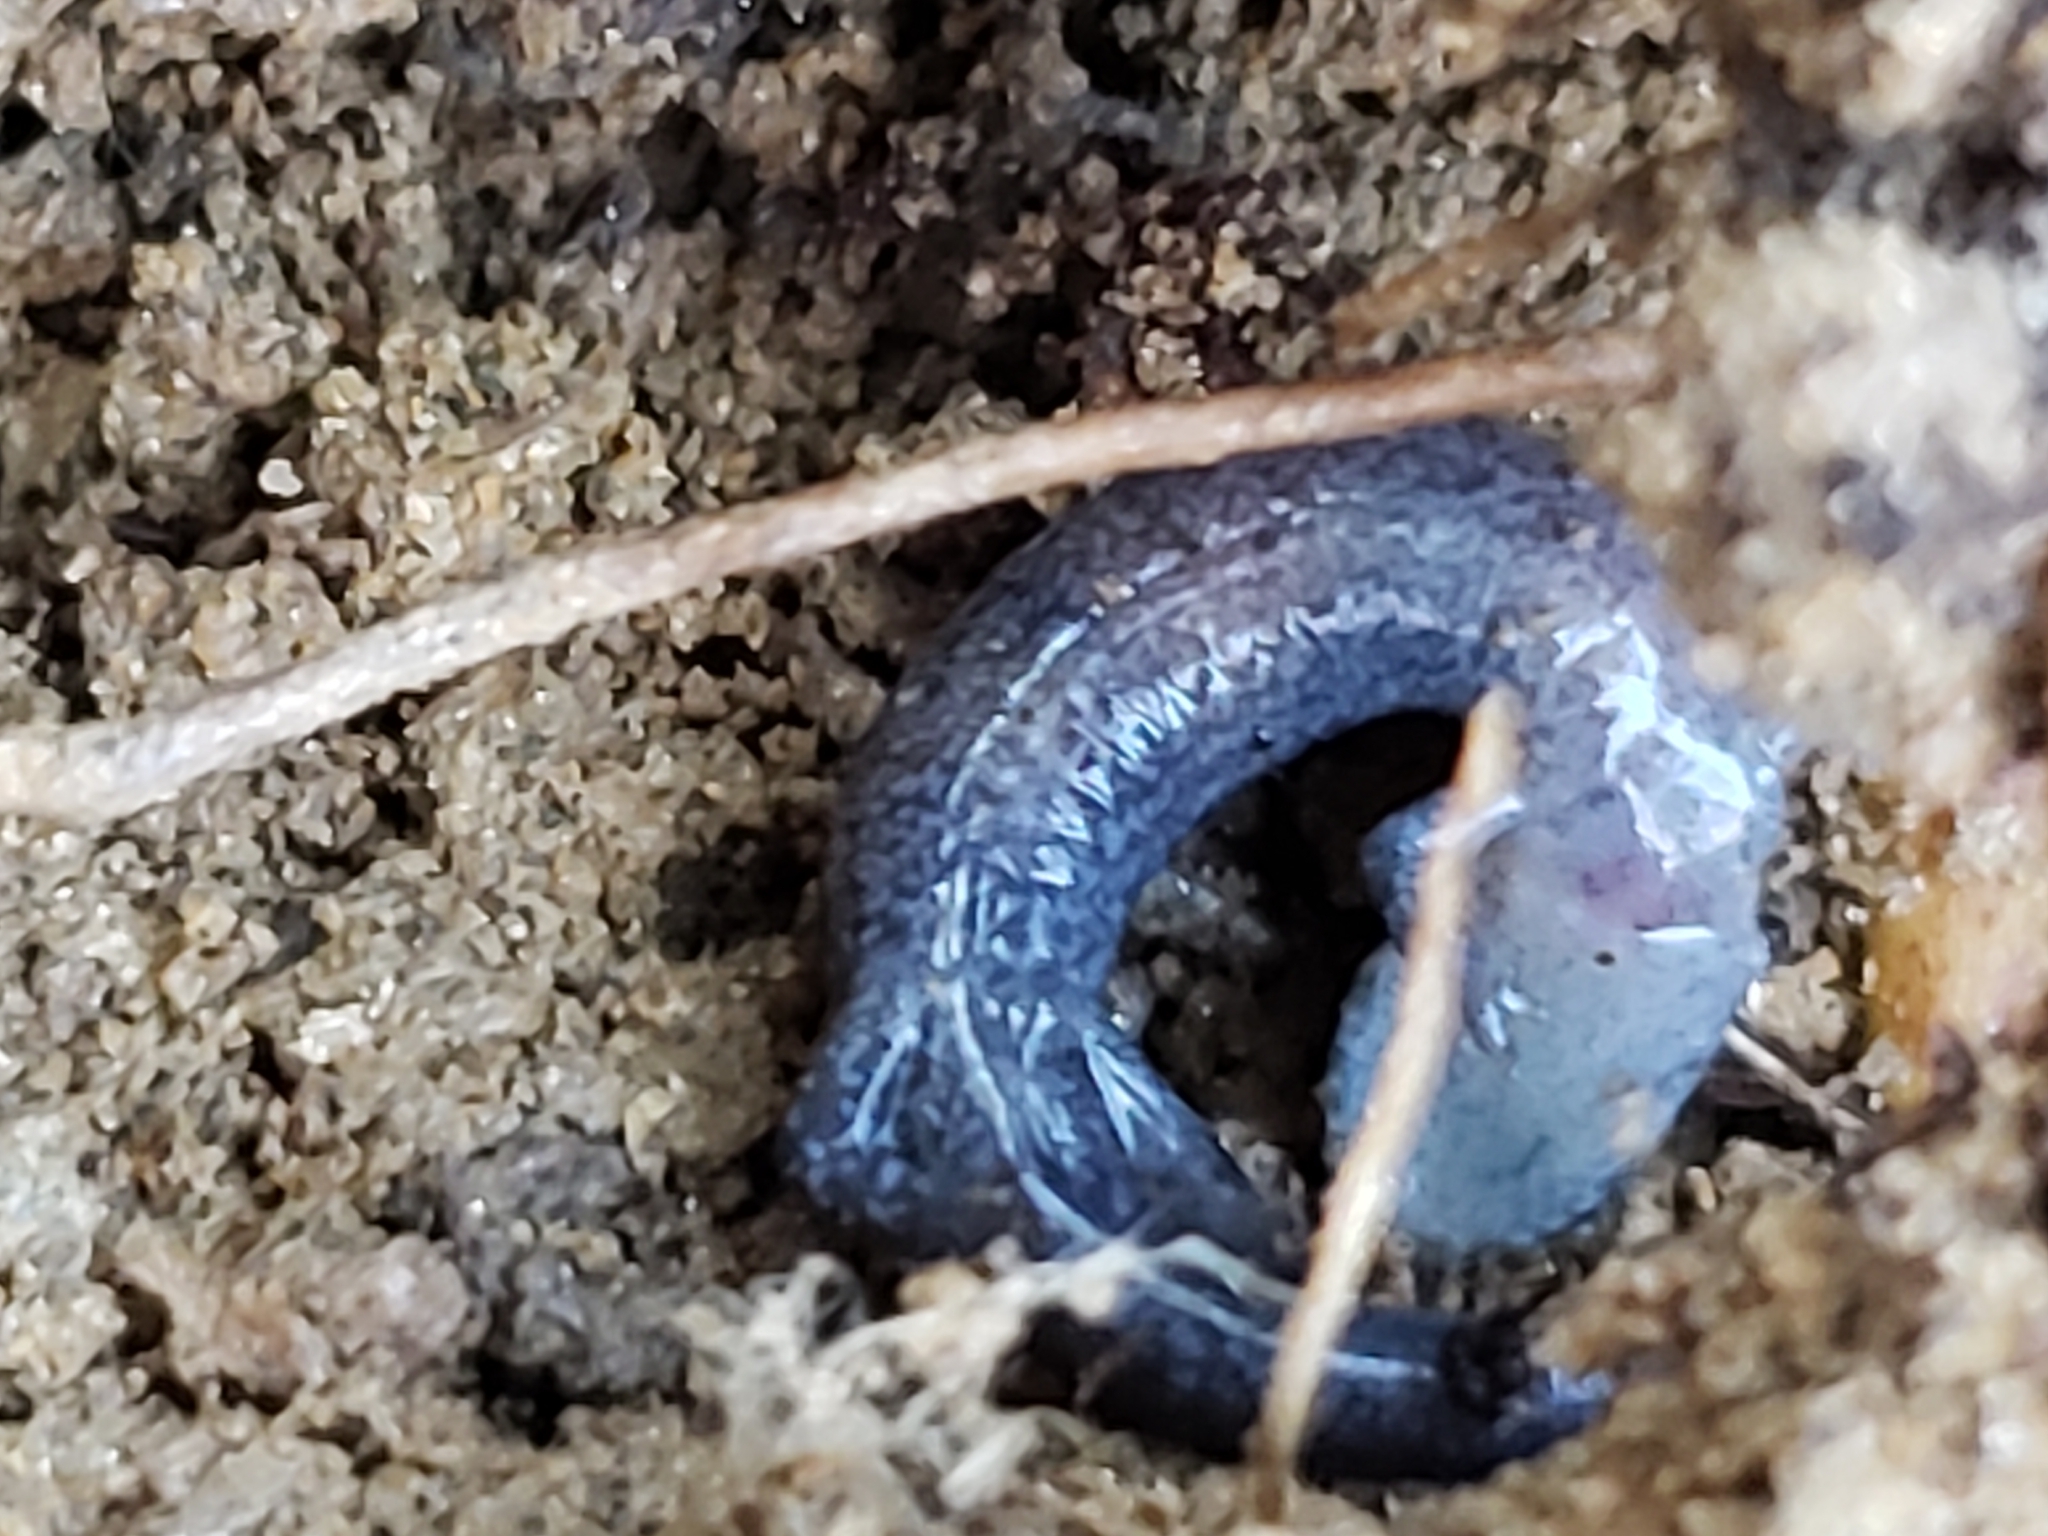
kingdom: Animalia
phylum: Chordata
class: Amphibia
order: Caudata
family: Plethodontidae
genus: Plethodon
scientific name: Plethodon cinereus
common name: Redback salamander
